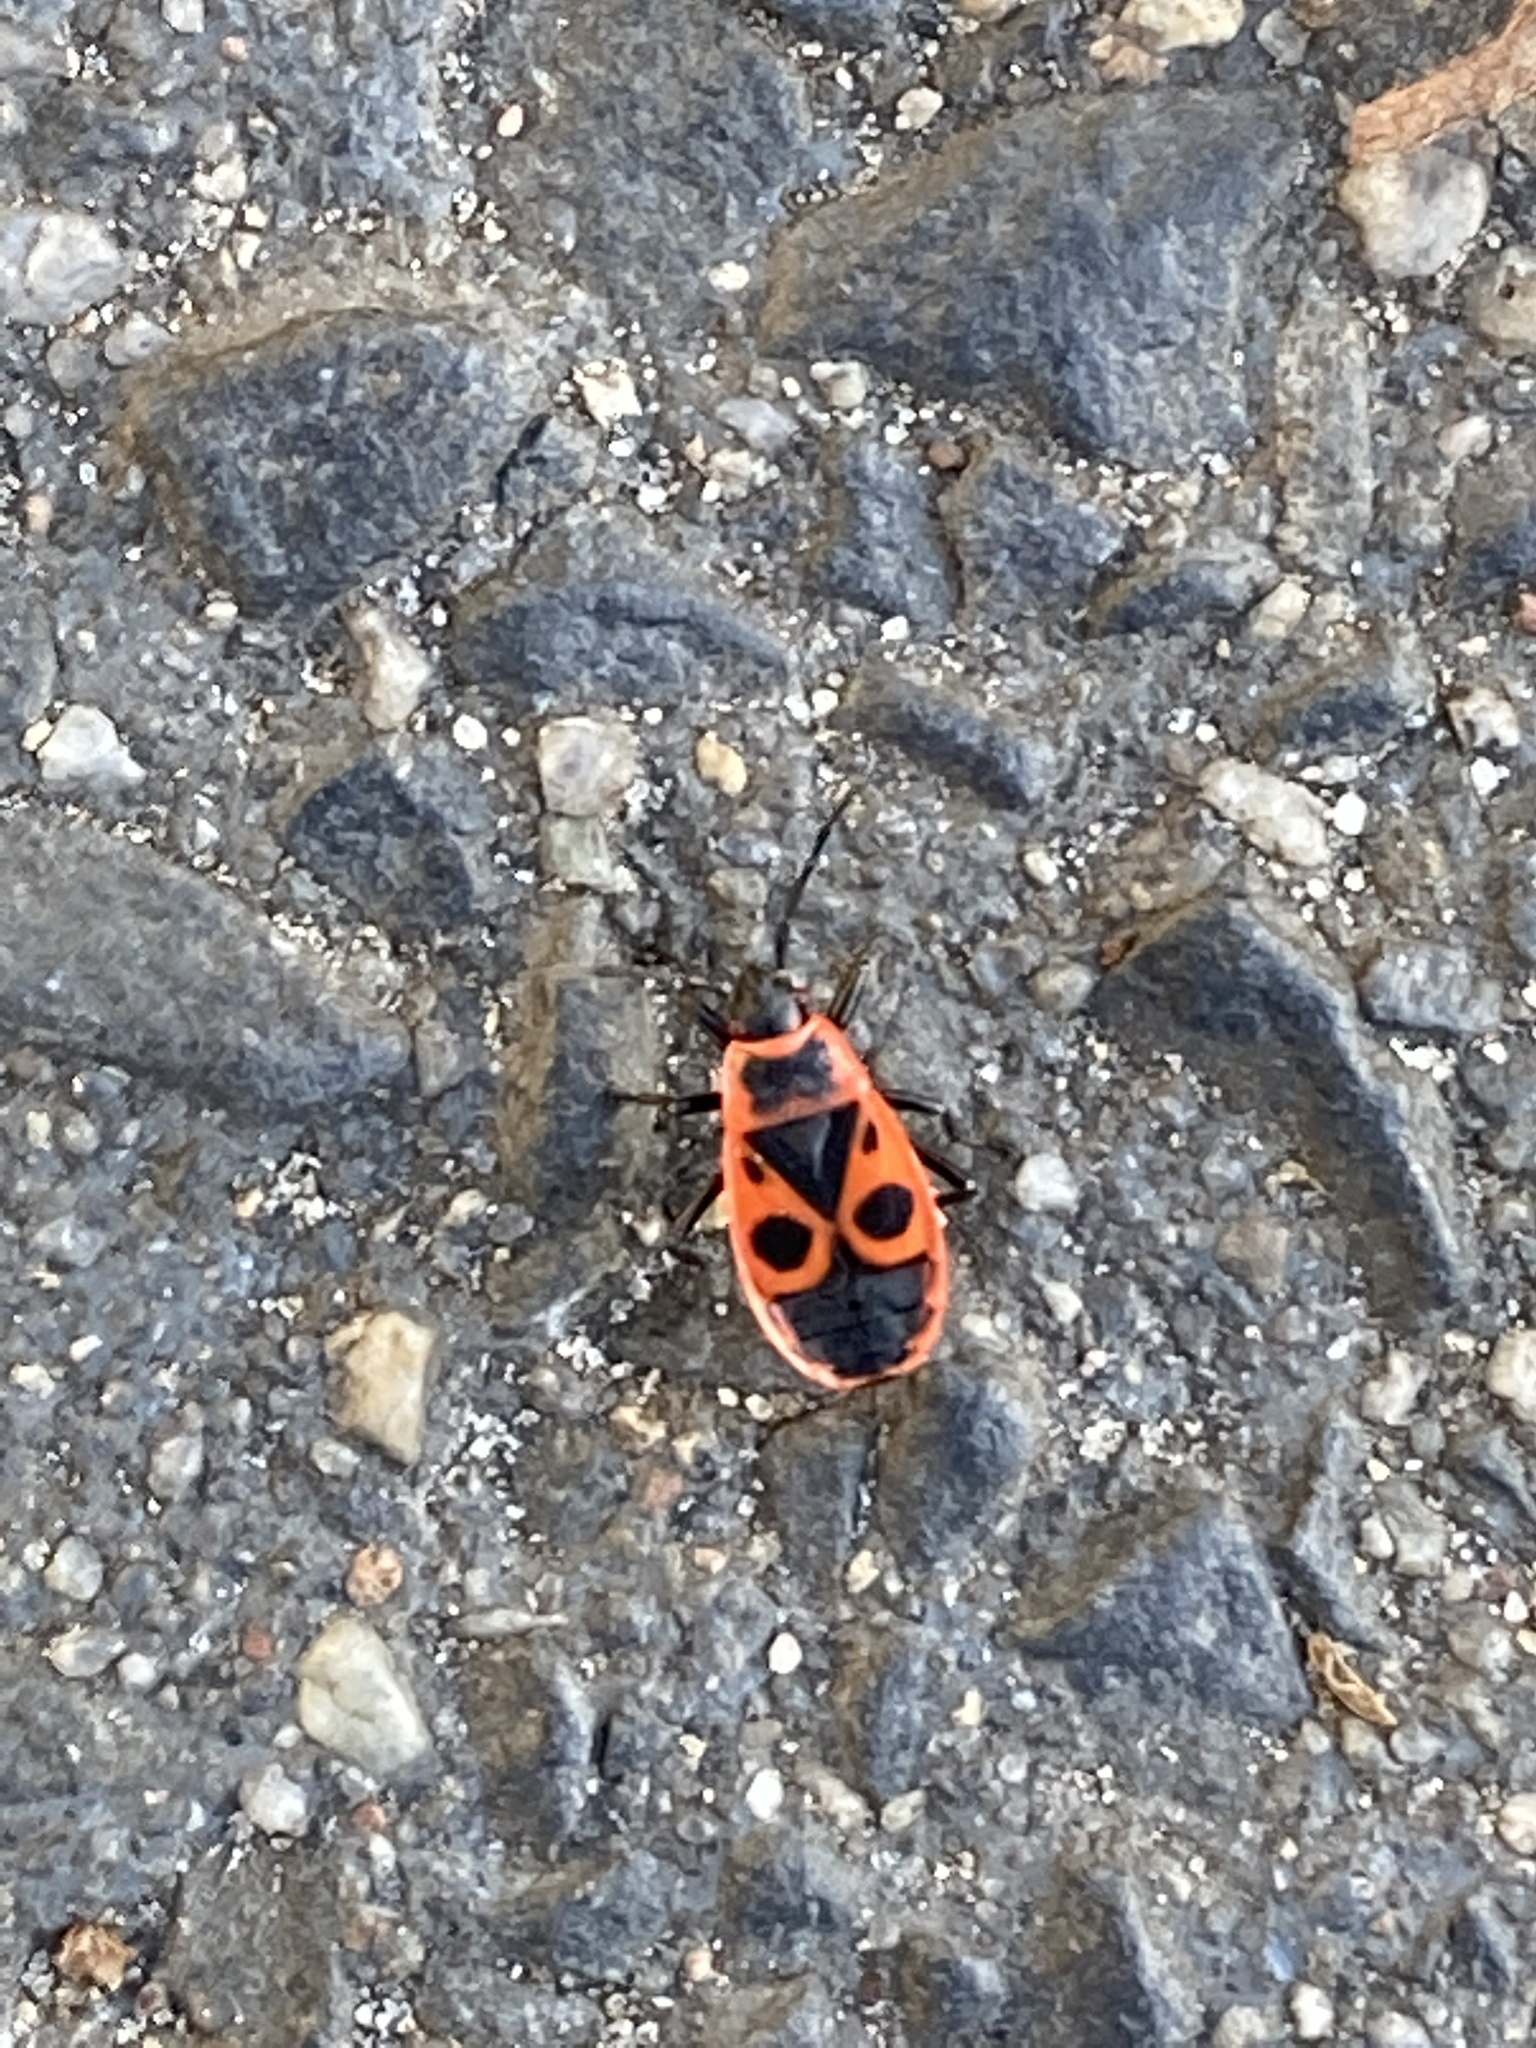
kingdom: Animalia
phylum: Arthropoda
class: Insecta
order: Hemiptera
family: Pyrrhocoridae
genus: Pyrrhocoris
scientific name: Pyrrhocoris apterus
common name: Firebug
